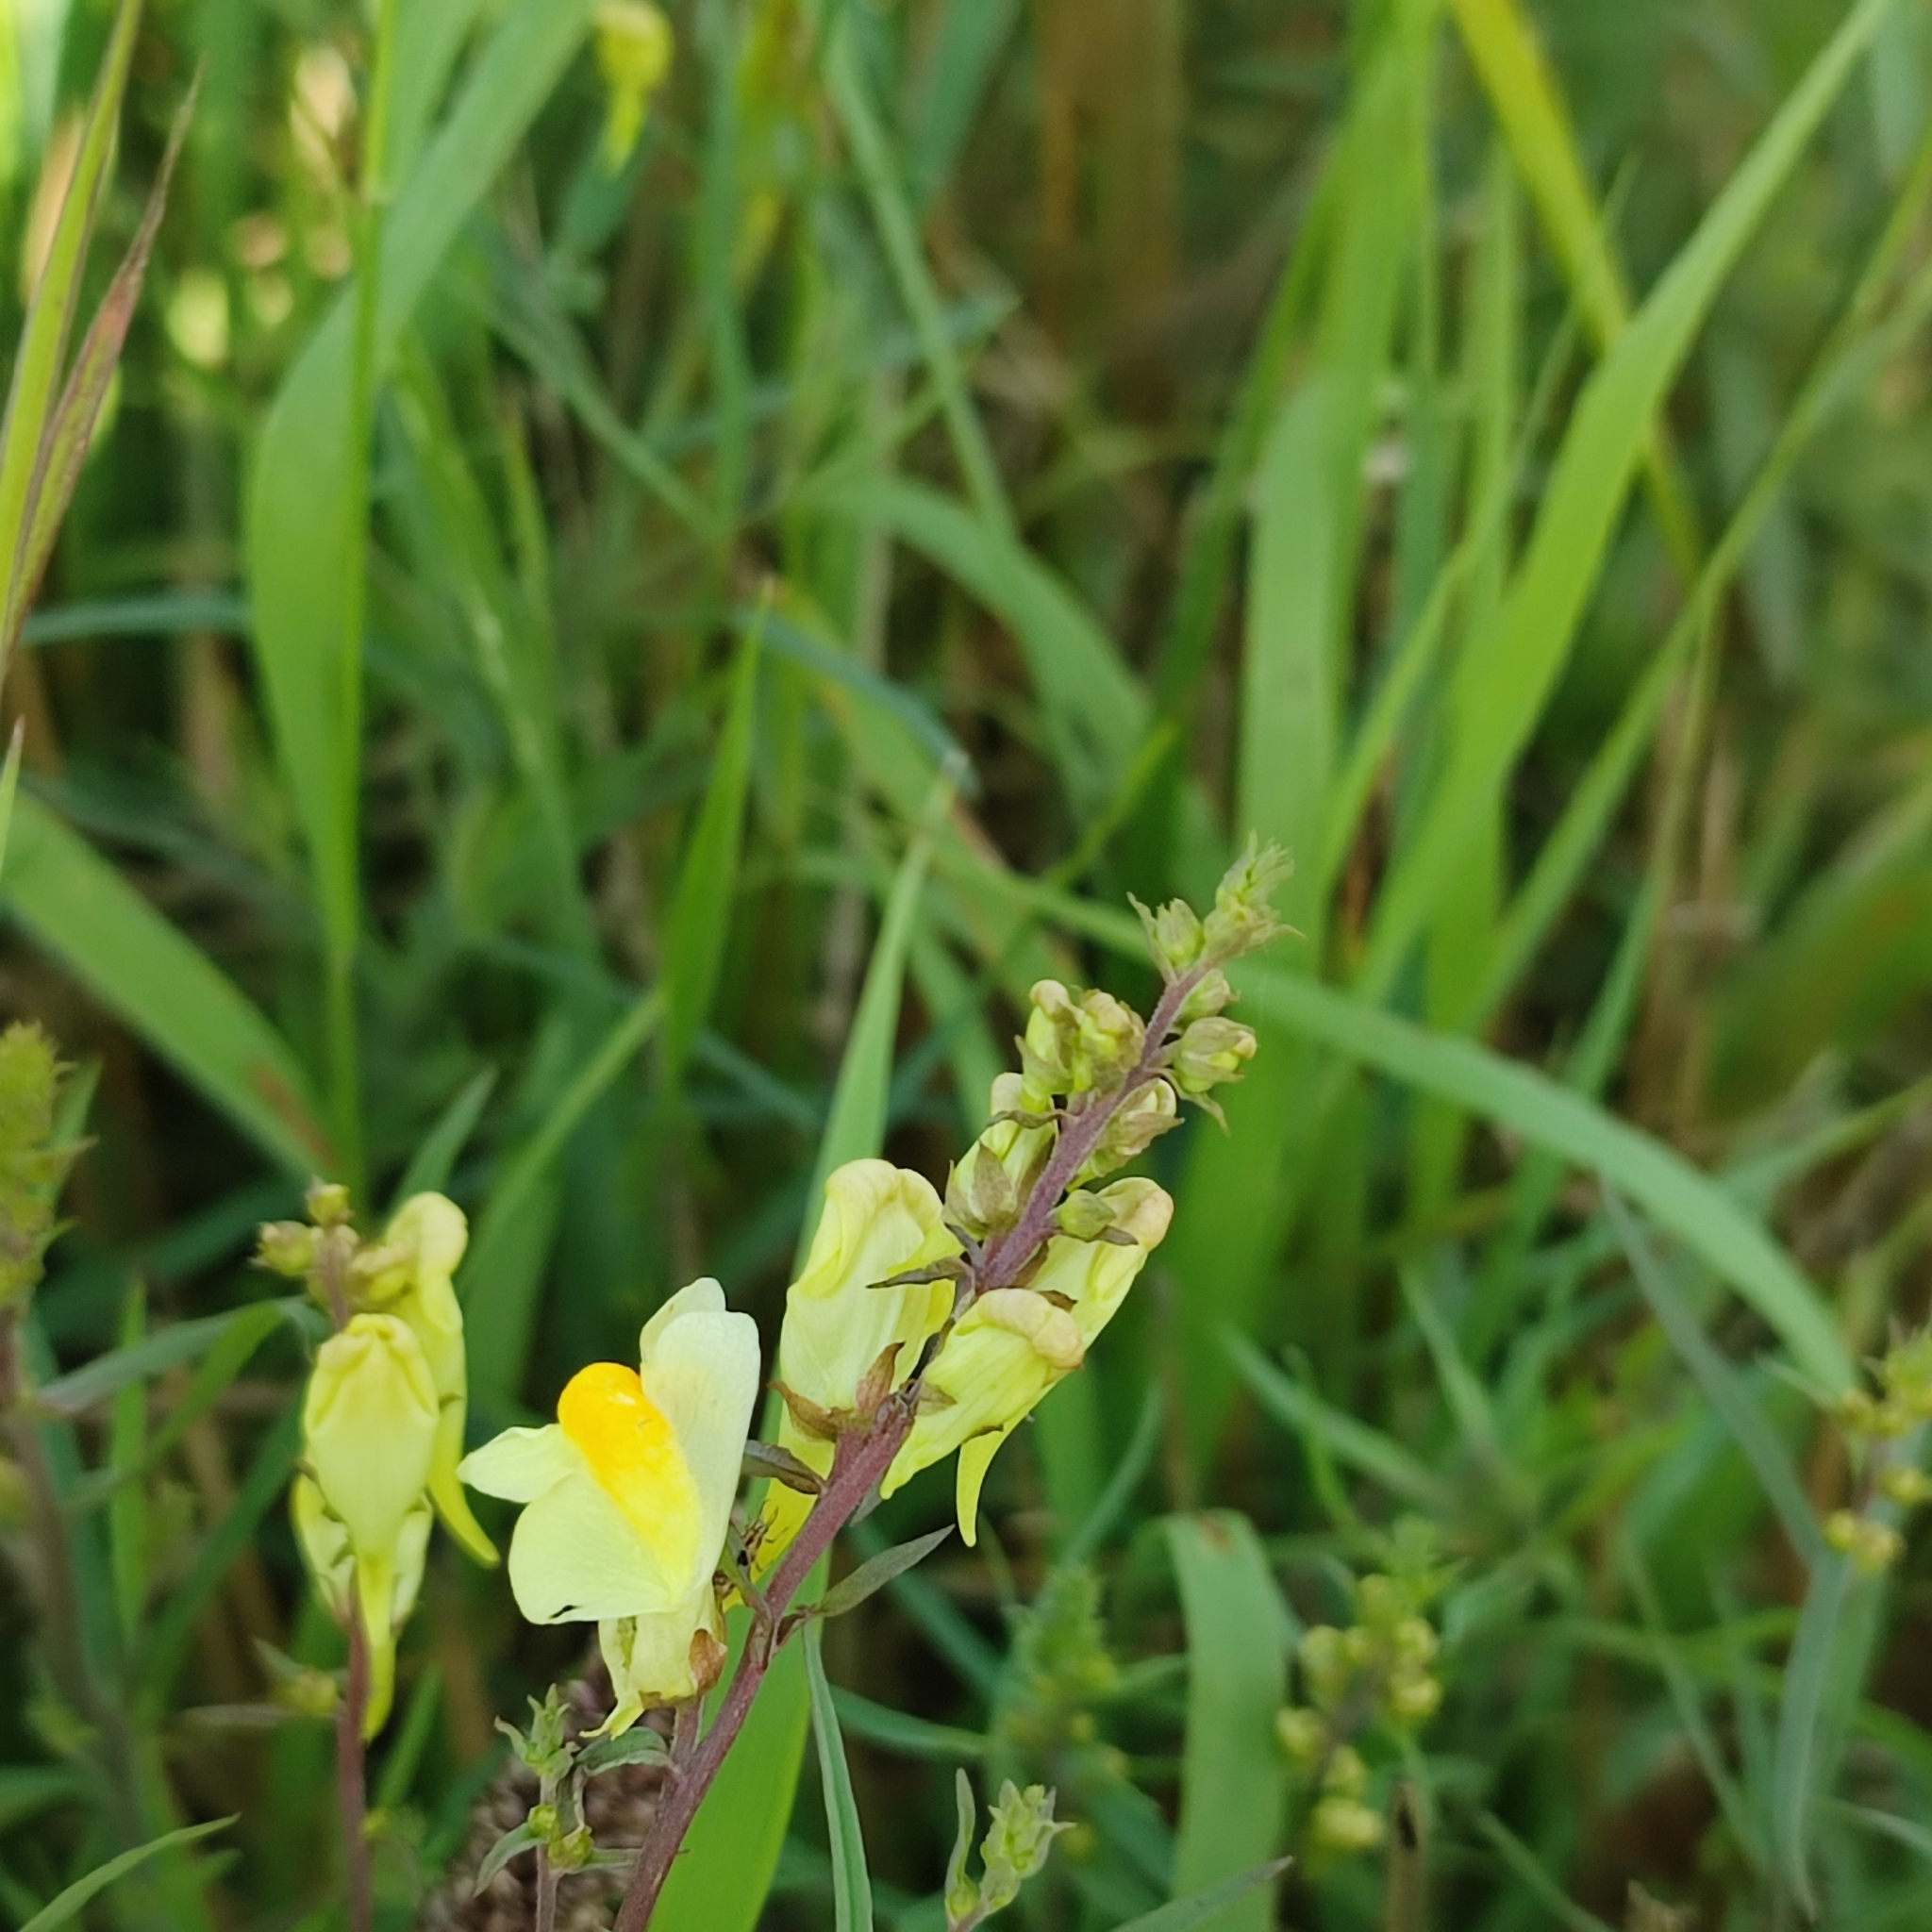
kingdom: Plantae
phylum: Tracheophyta
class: Magnoliopsida
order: Lamiales
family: Plantaginaceae
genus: Linaria
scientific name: Linaria vulgaris
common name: Butter and eggs
